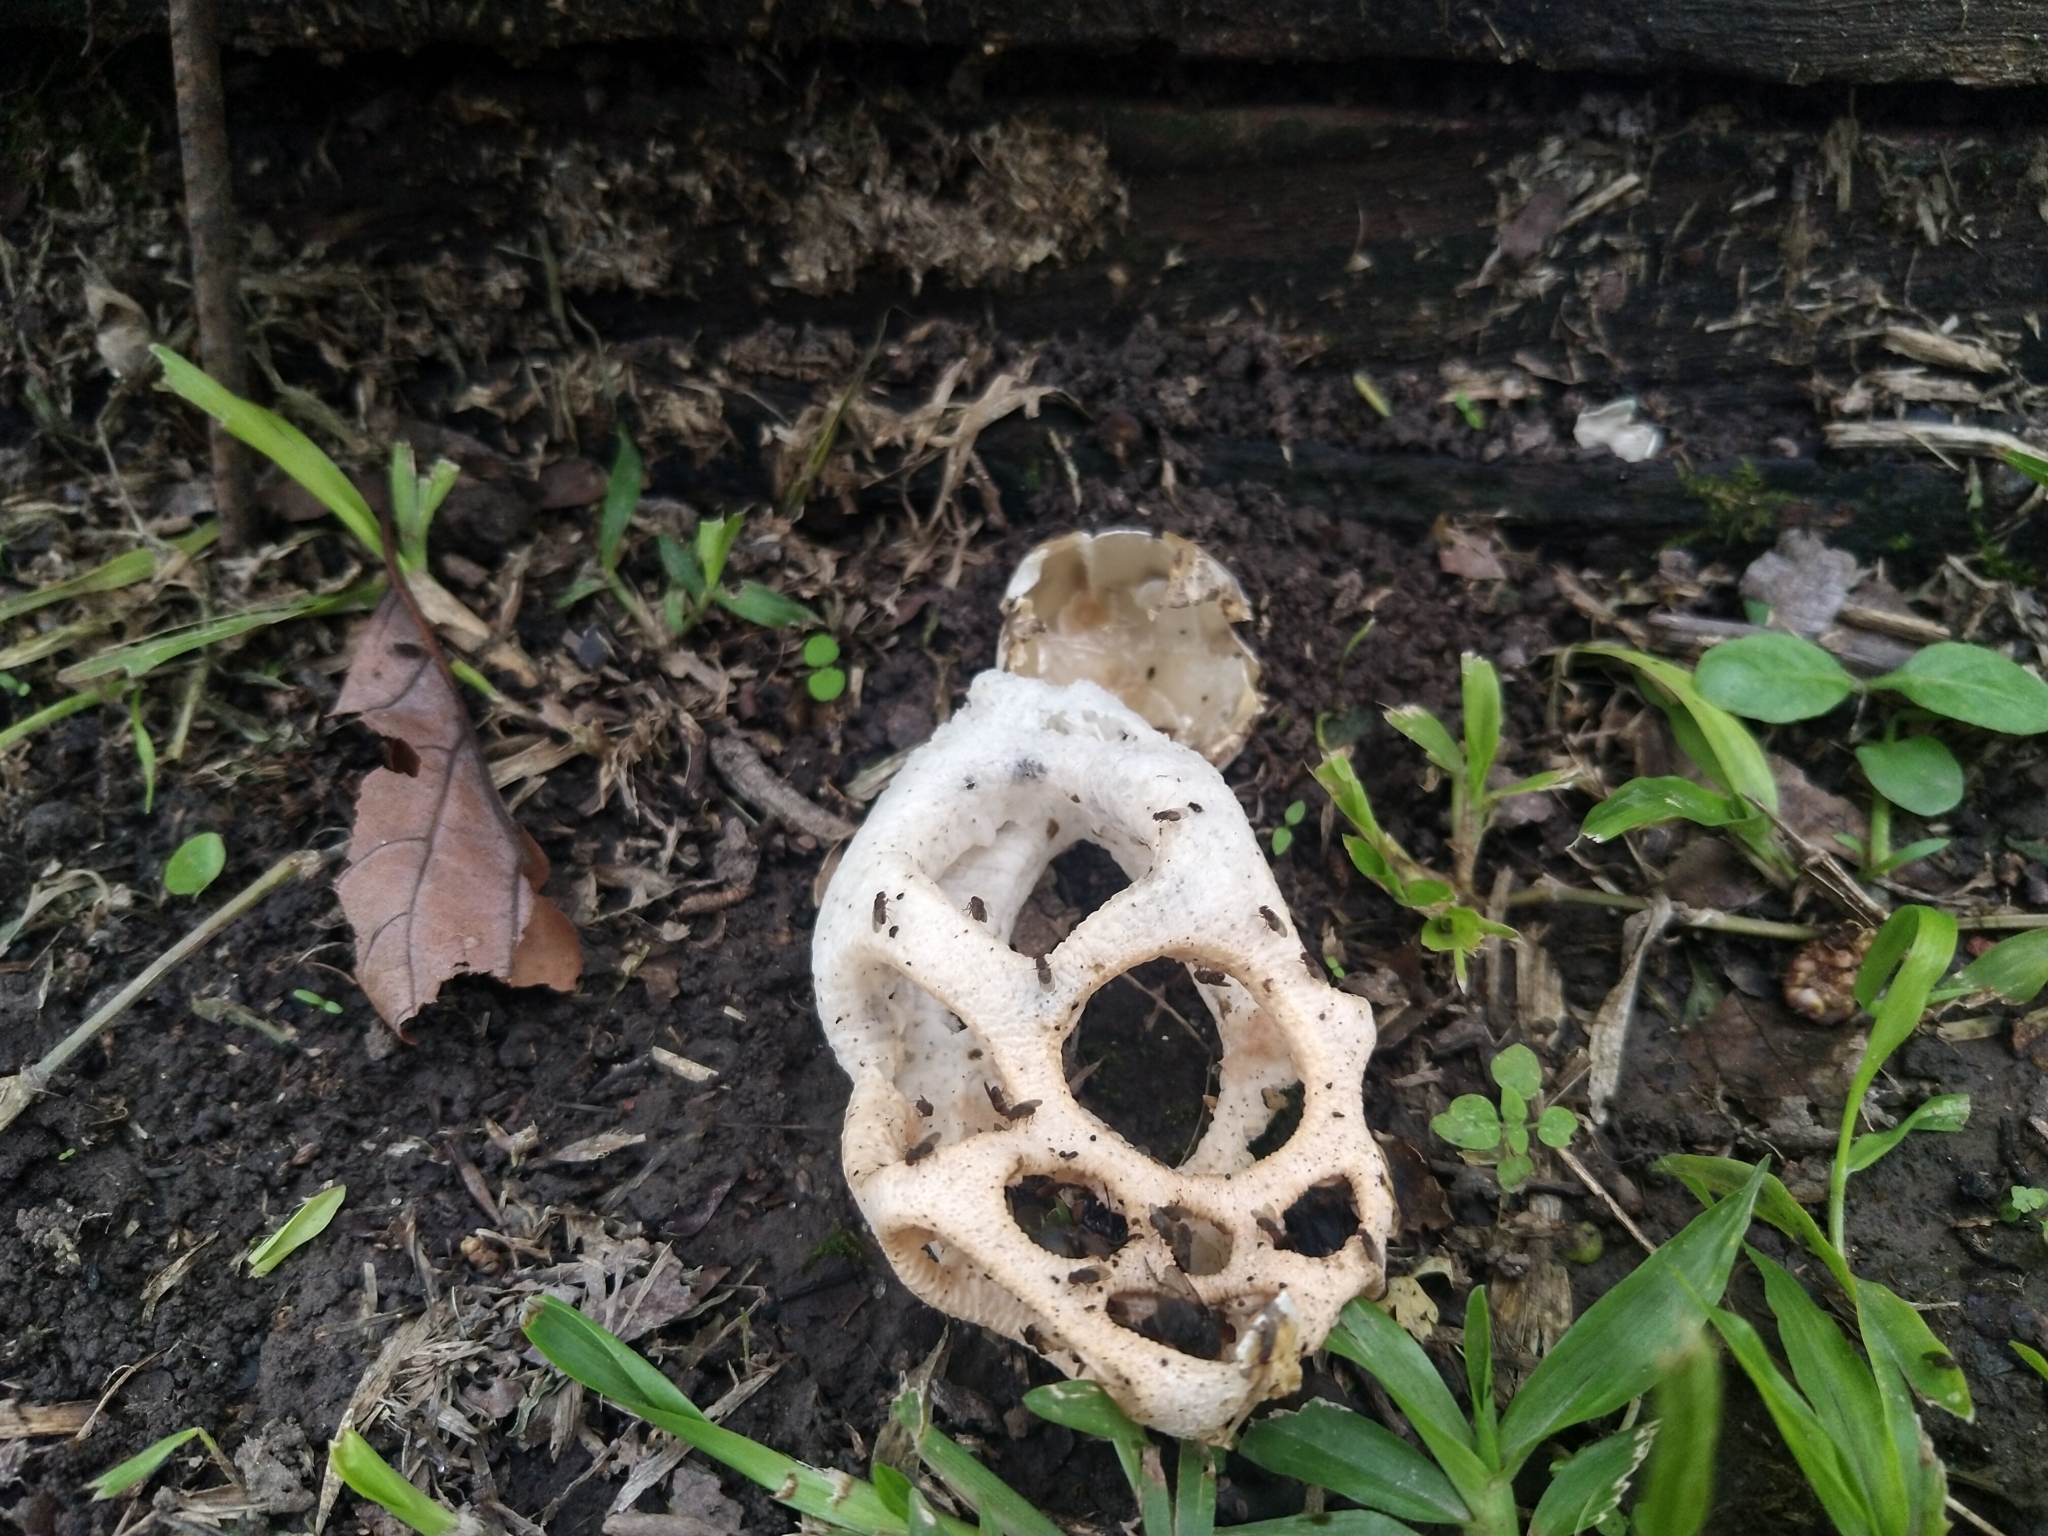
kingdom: Fungi
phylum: Basidiomycota
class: Agaricomycetes
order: Phallales
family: Phallaceae
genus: Clathrus
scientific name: Clathrus chrysomycelinus
